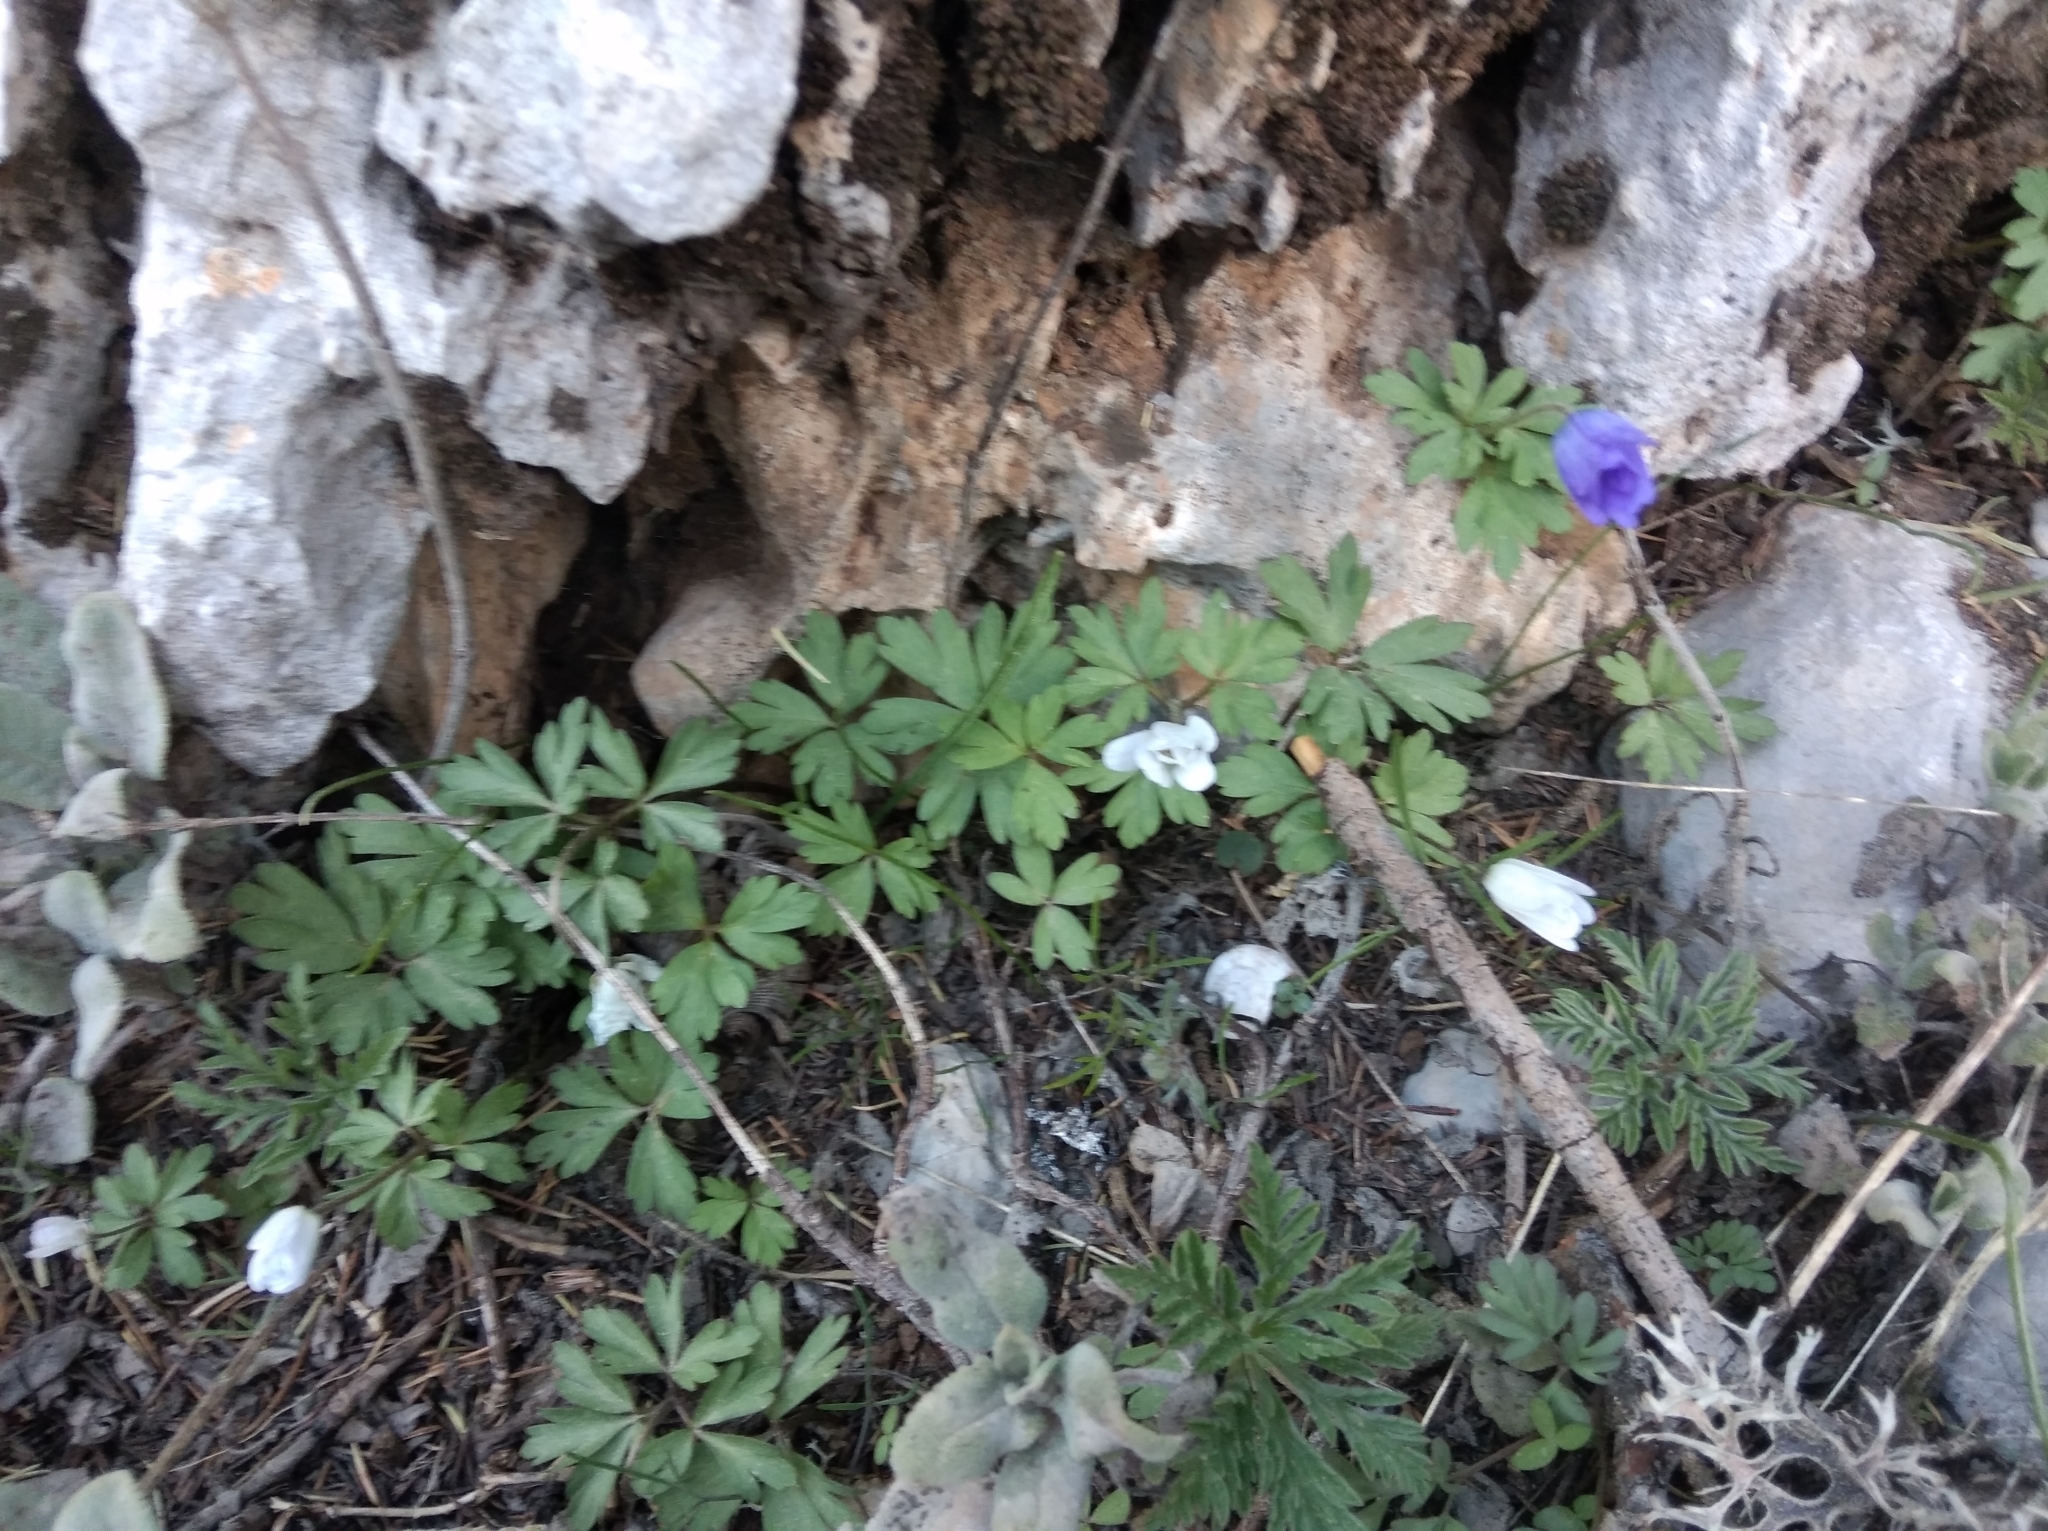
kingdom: Plantae
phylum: Tracheophyta
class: Magnoliopsida
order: Ranunculales
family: Ranunculaceae
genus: Anemone
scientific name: Anemone blanda
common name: Balkan anemone
